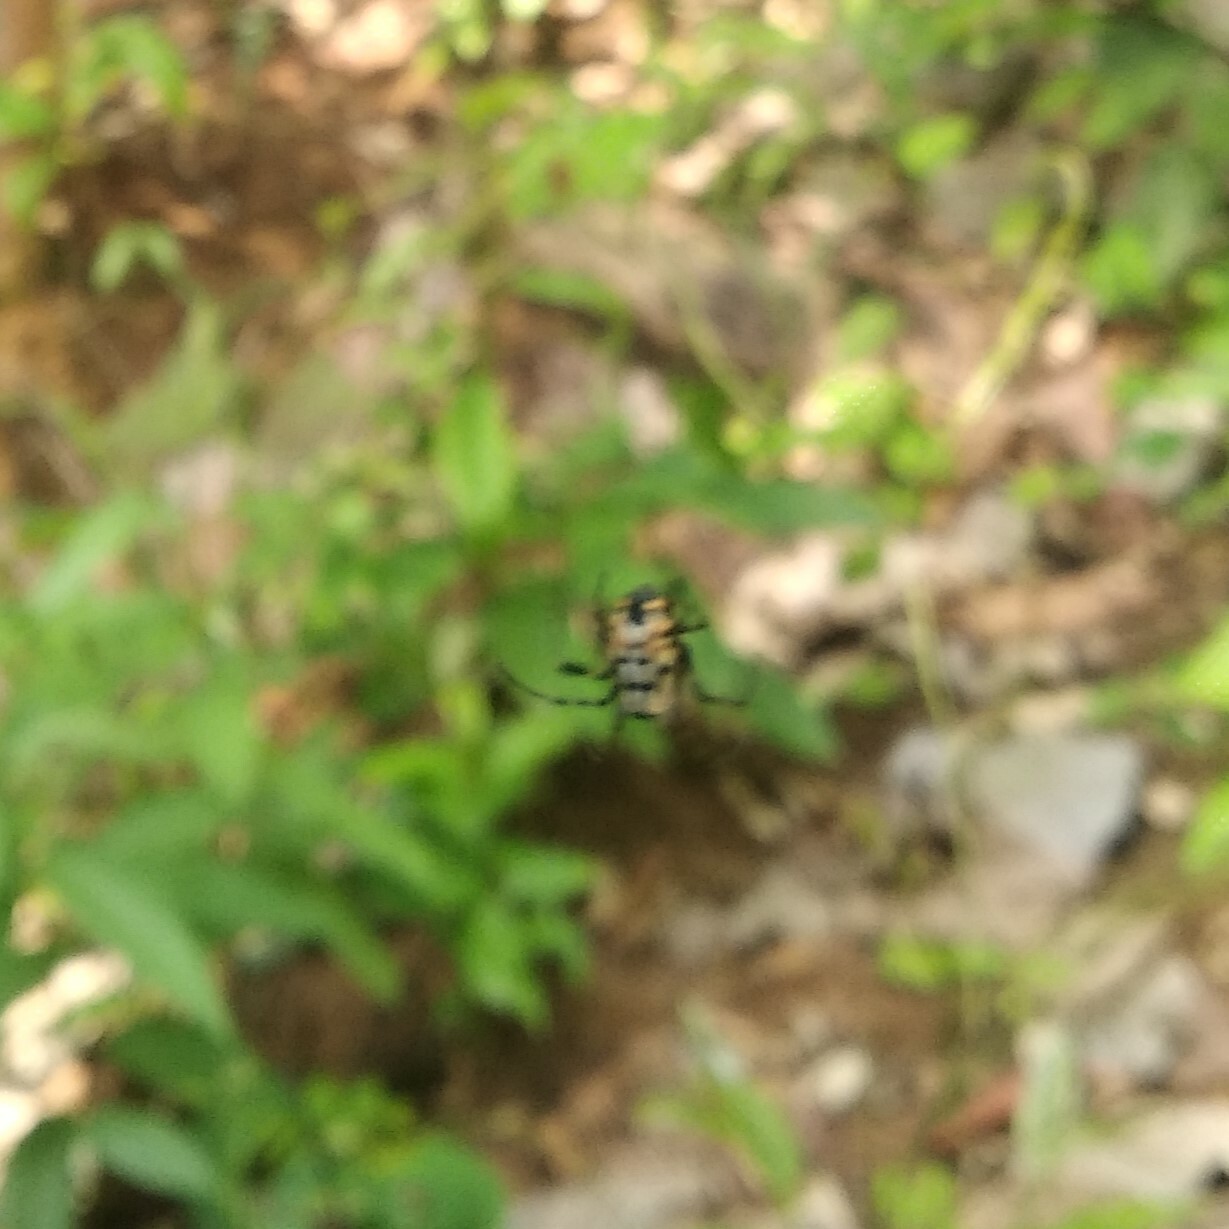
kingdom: Animalia
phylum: Arthropoda
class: Arachnida
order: Araneae
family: Tetragnathidae
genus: Leucauge
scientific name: Leucauge fastigata
